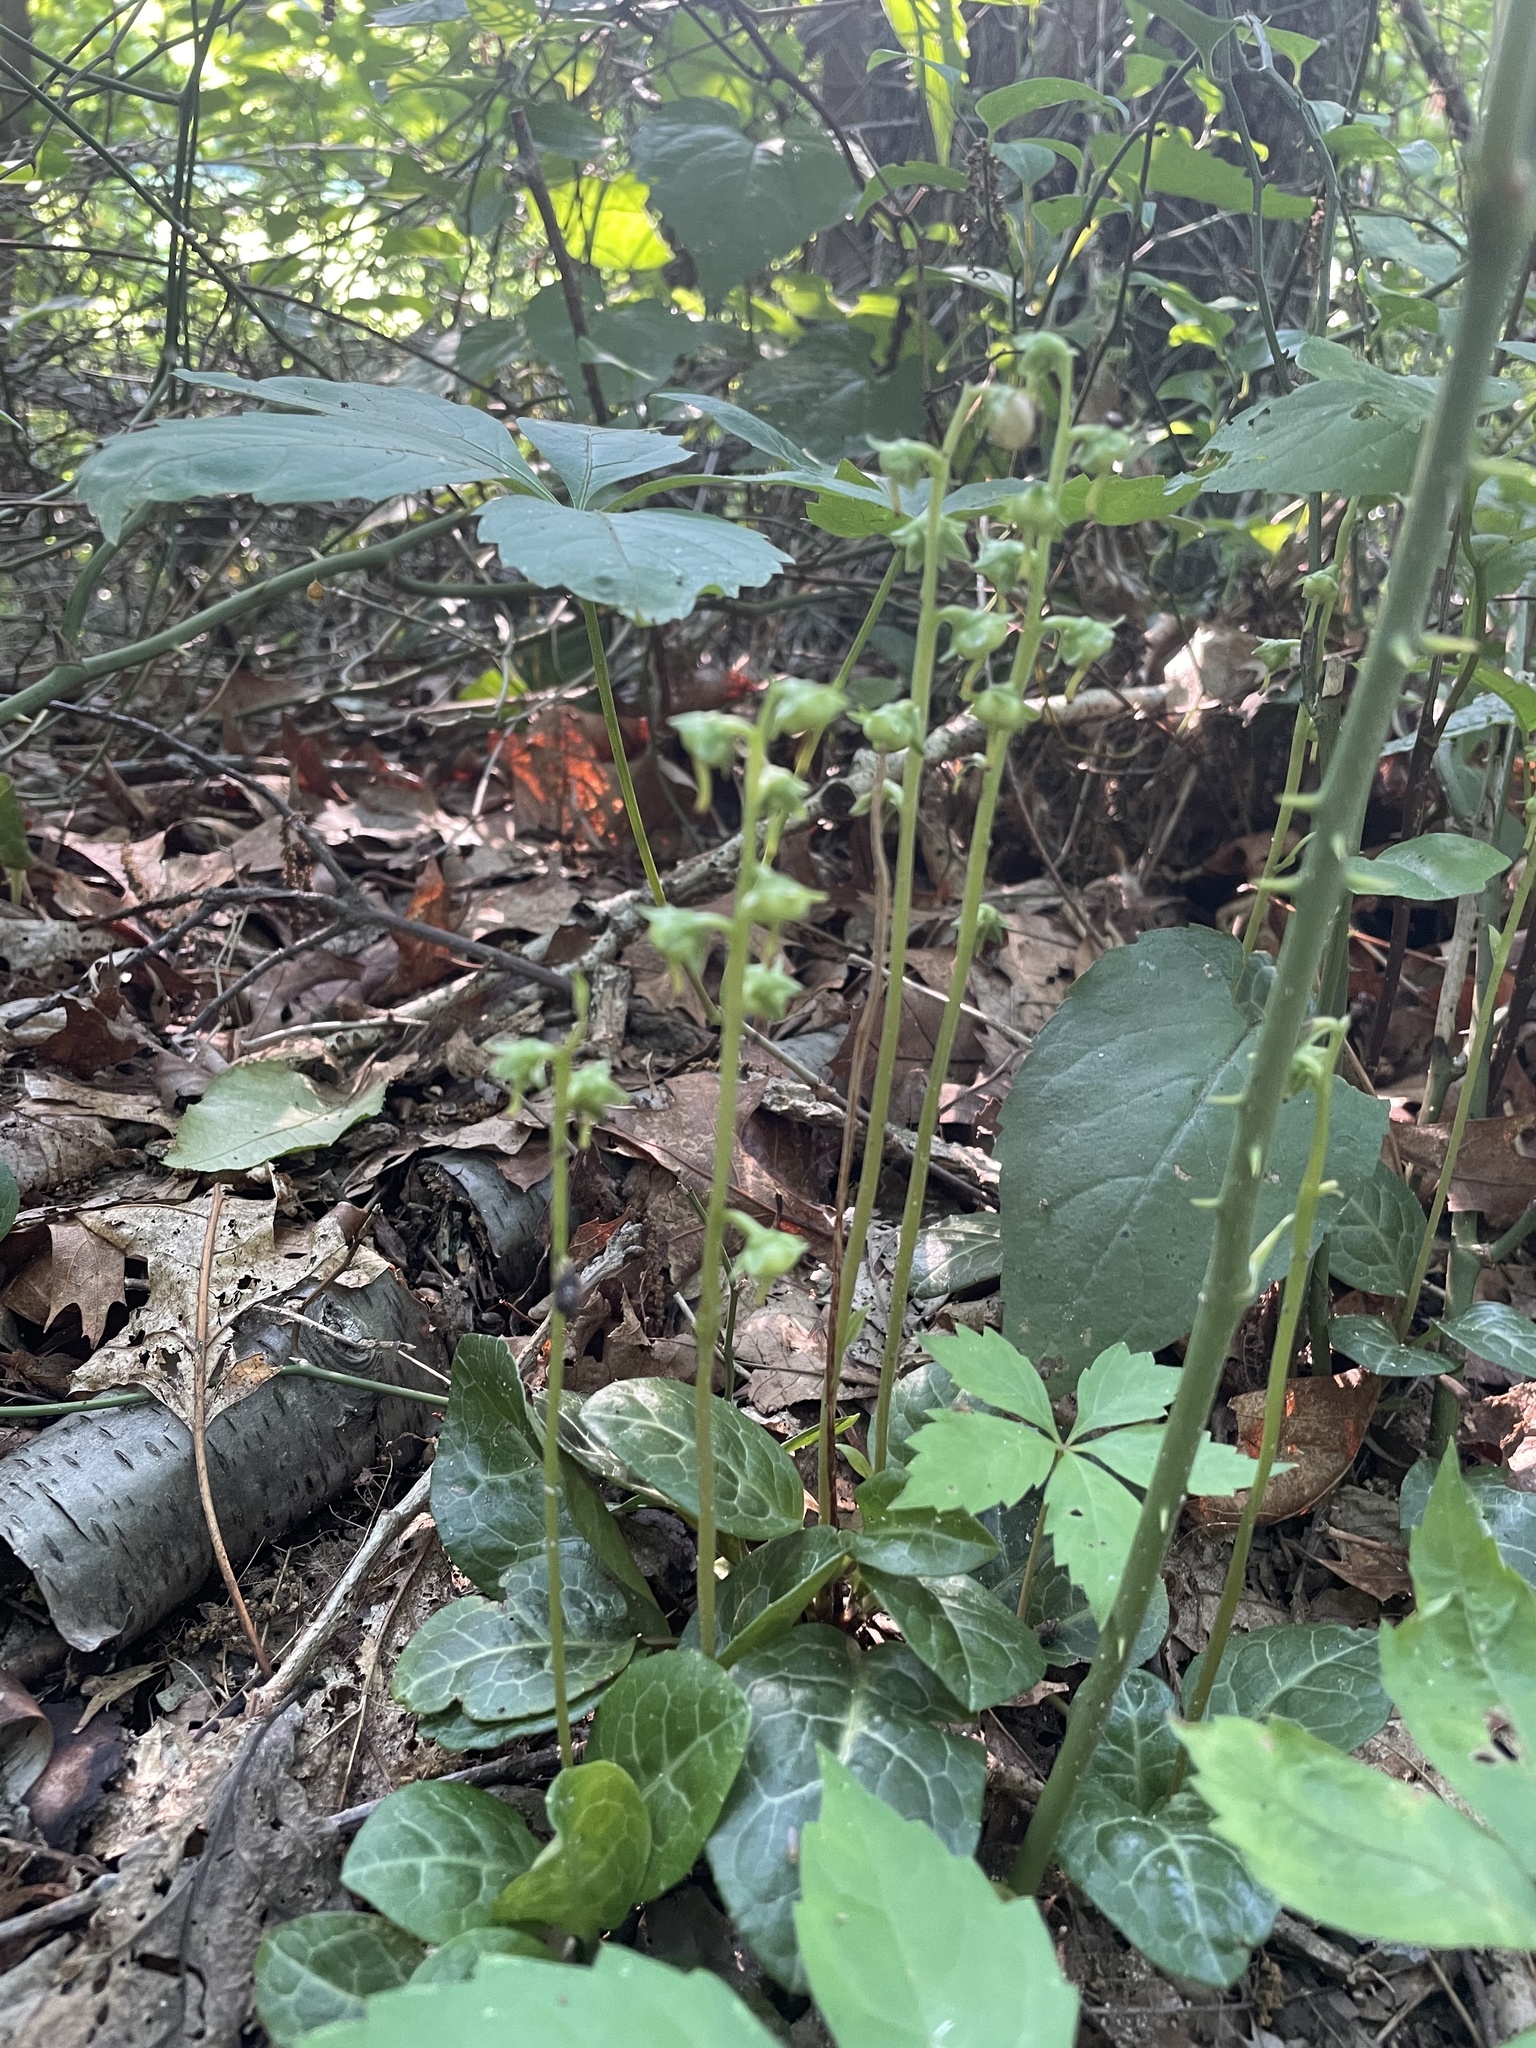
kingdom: Plantae
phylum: Tracheophyta
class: Magnoliopsida
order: Ericales
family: Ericaceae
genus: Pyrola
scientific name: Pyrola americana
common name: American wintergreen
